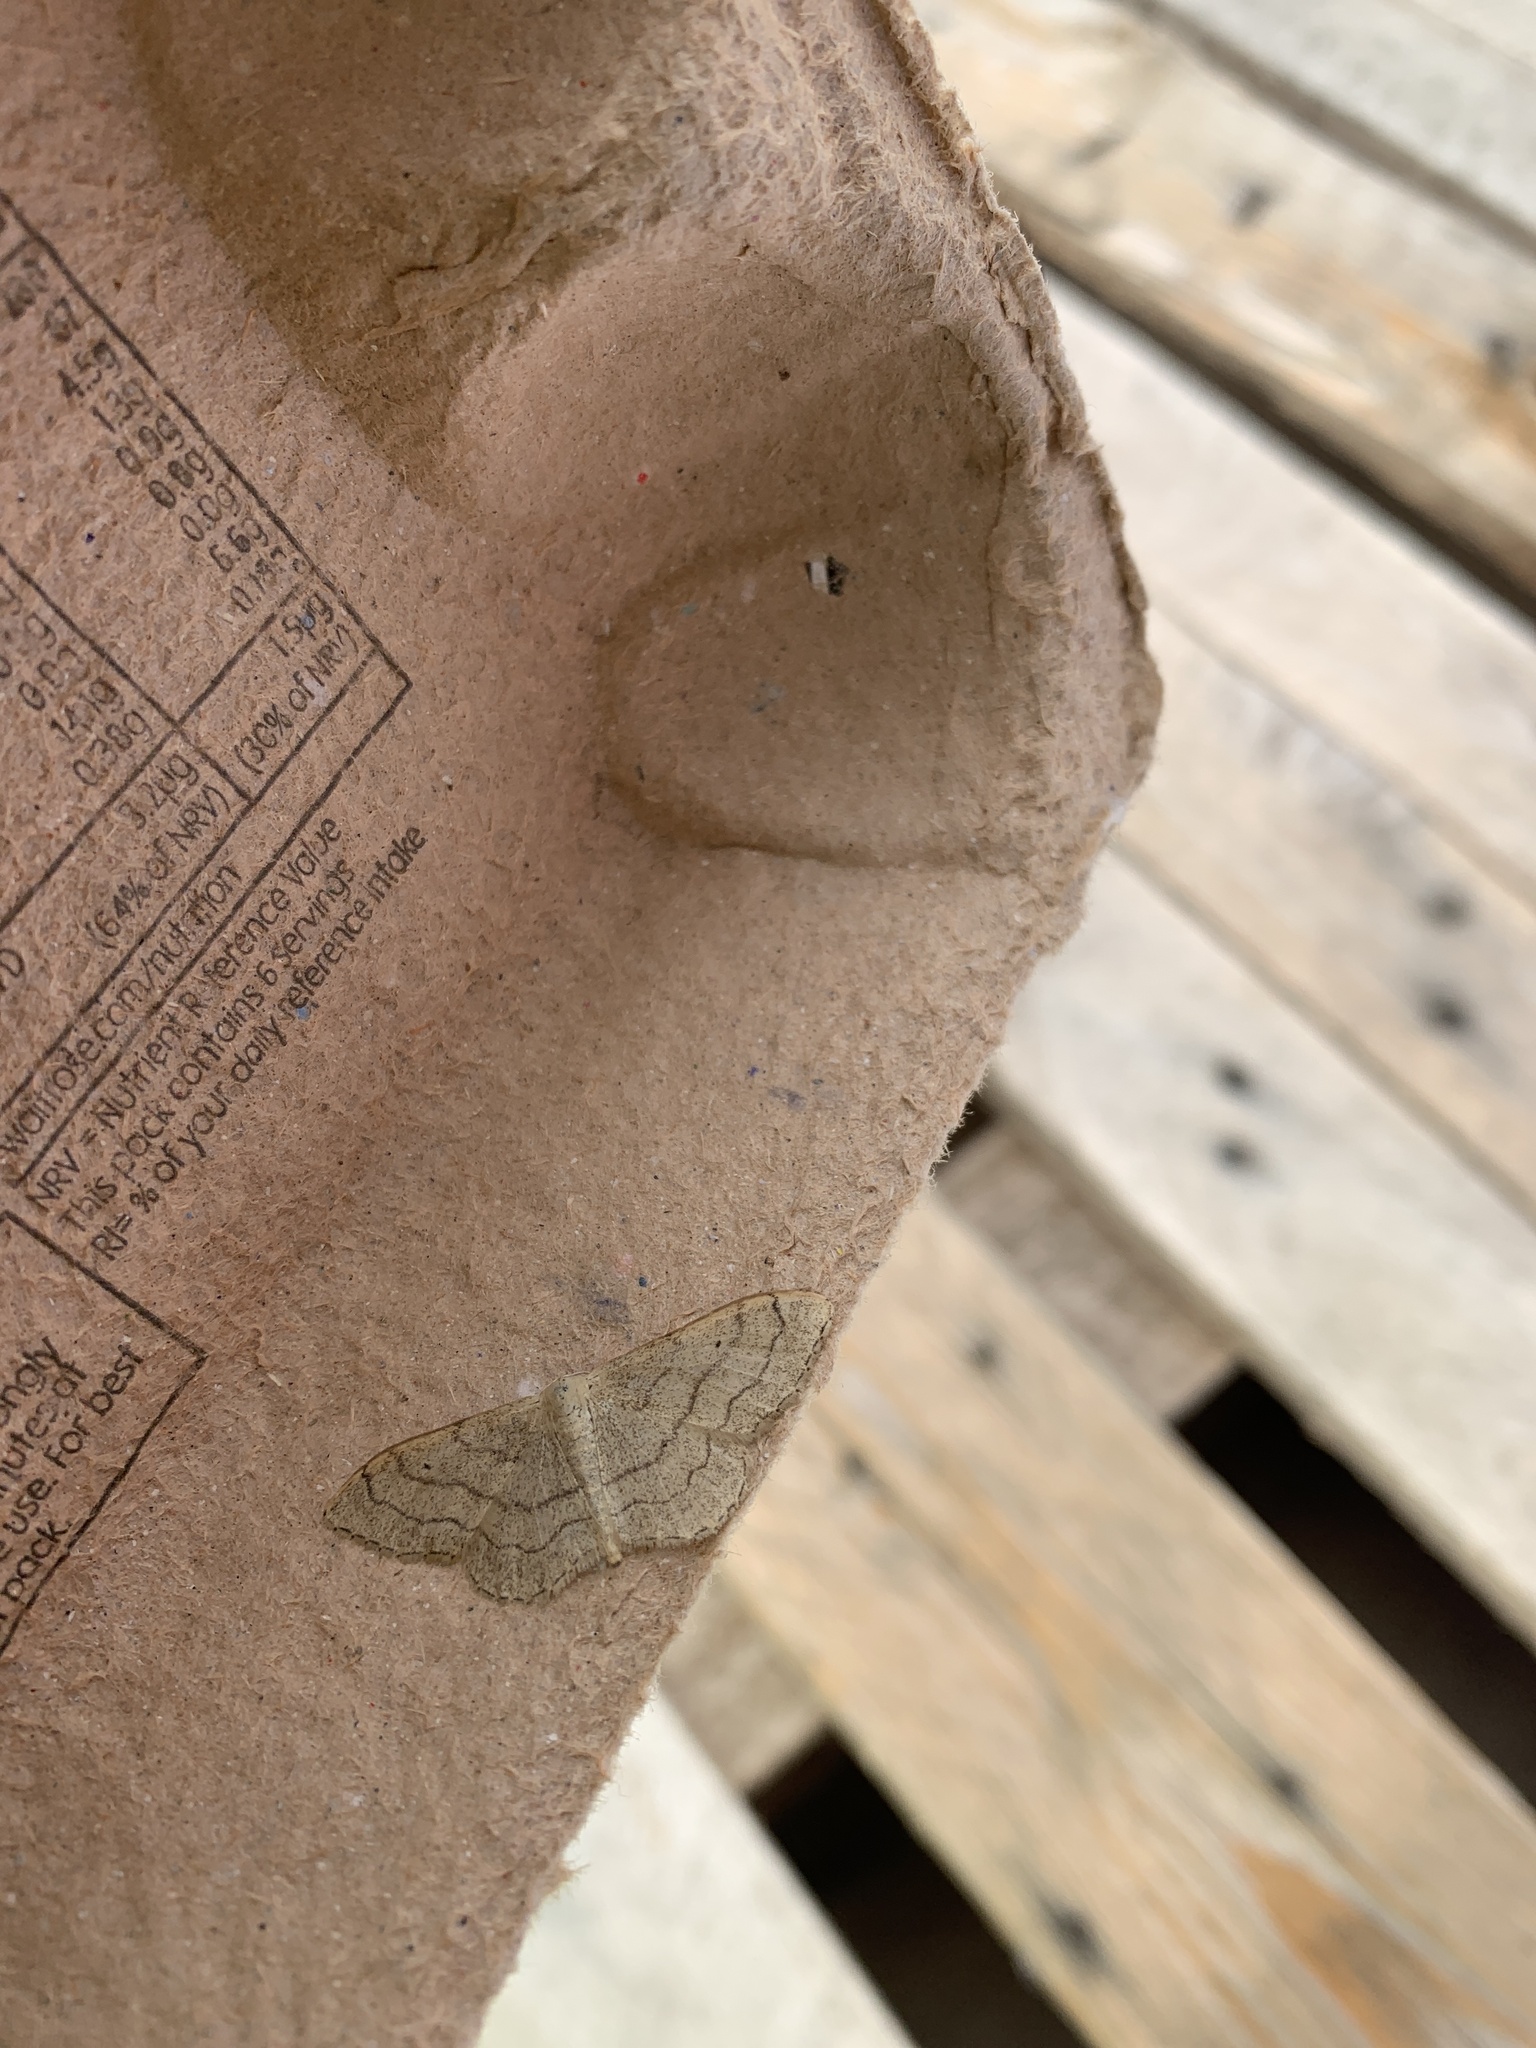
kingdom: Animalia
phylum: Arthropoda
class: Insecta
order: Lepidoptera
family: Geometridae
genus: Idaea
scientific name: Idaea aversata
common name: Riband wave
